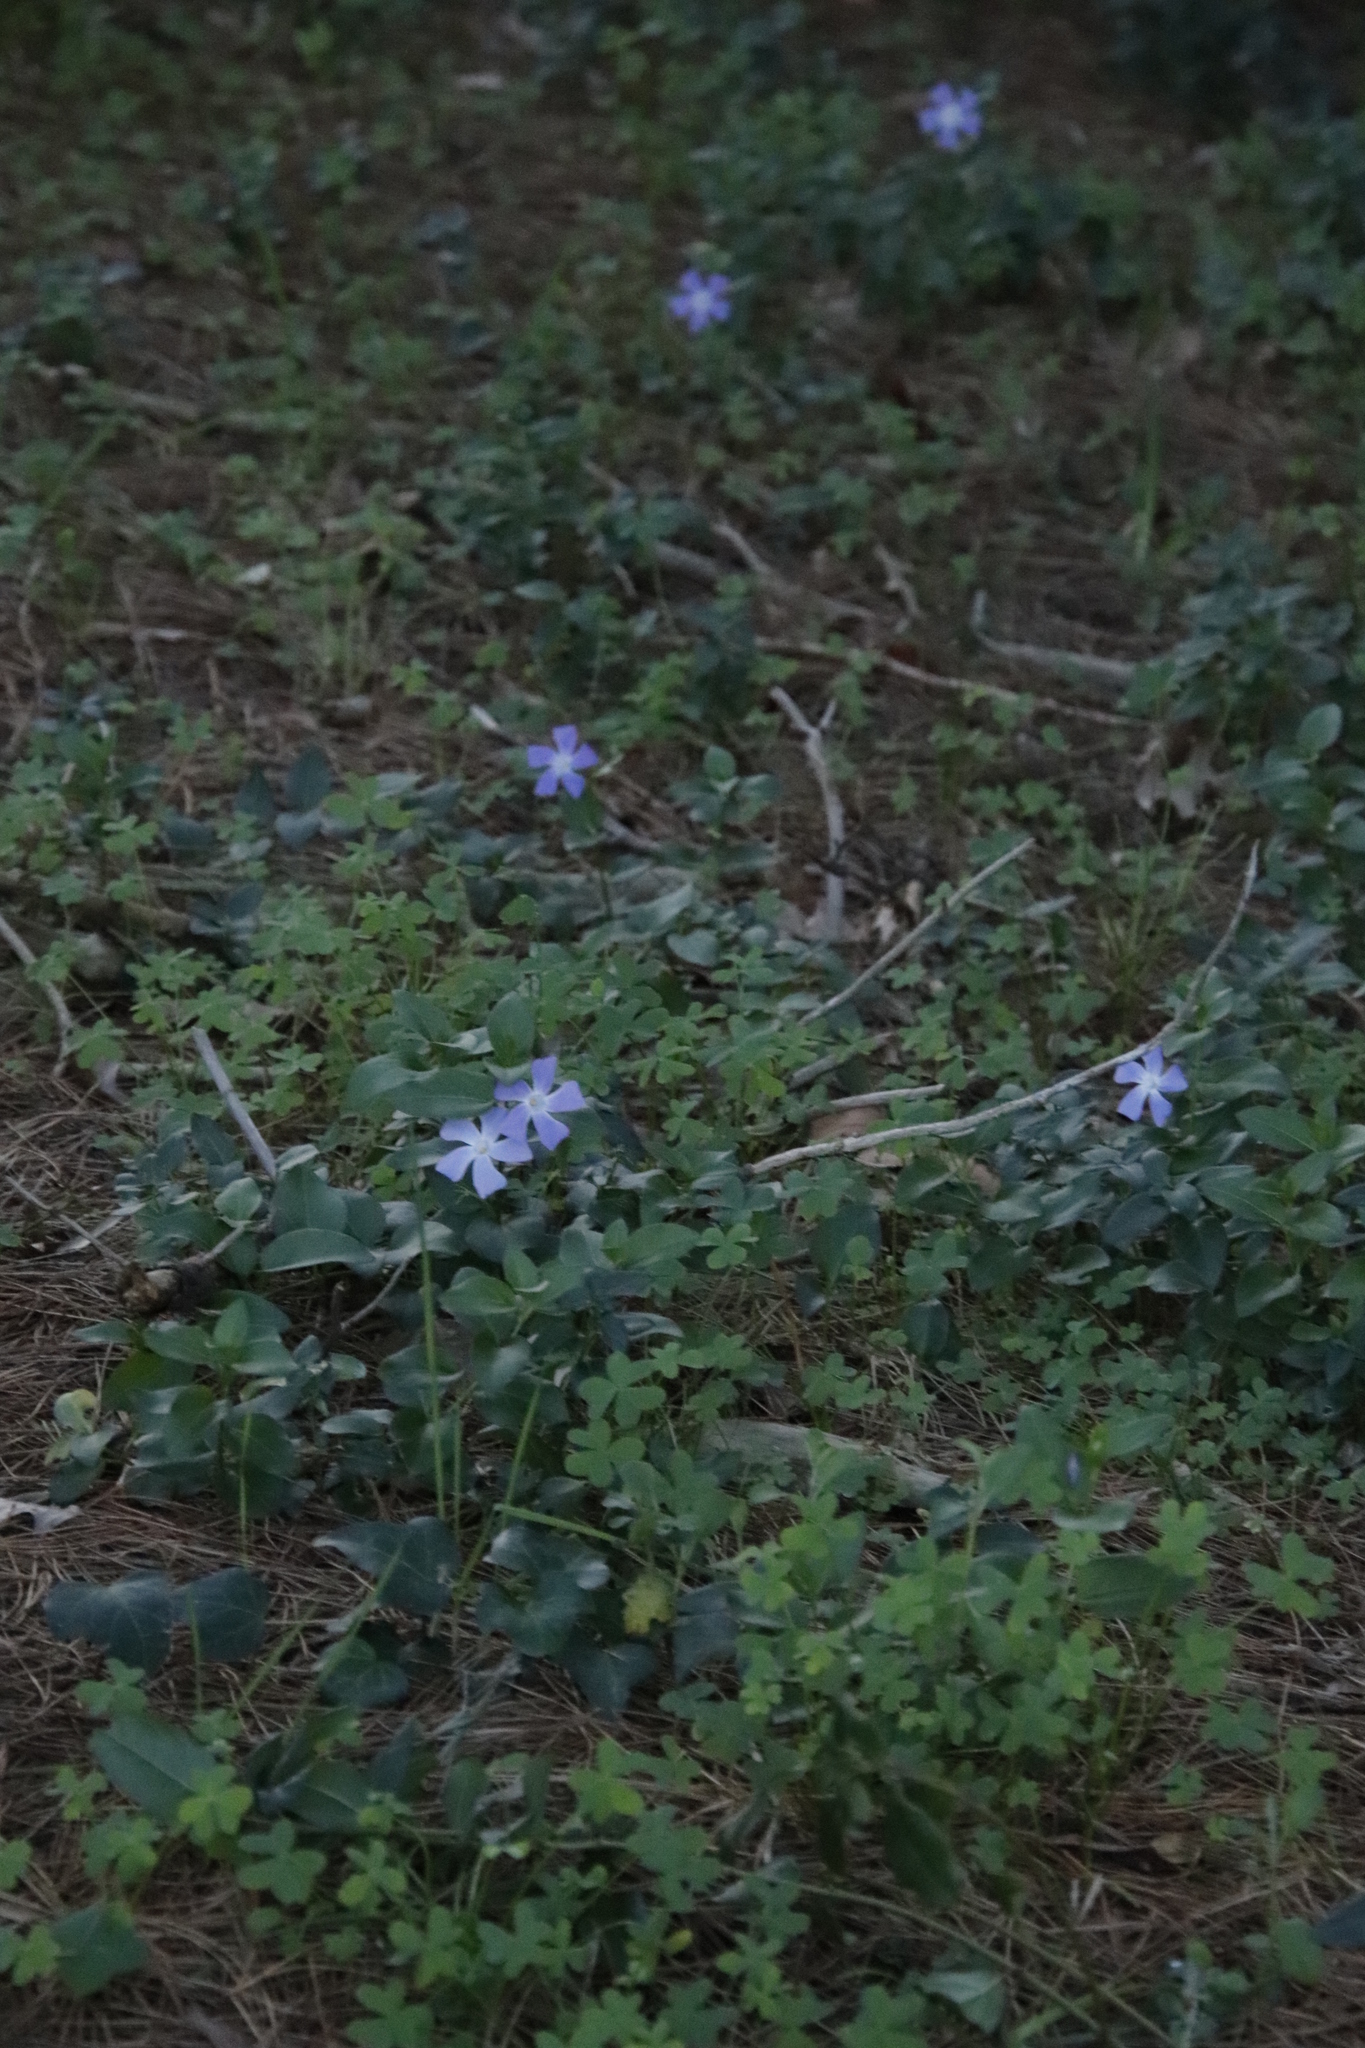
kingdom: Plantae
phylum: Tracheophyta
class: Magnoliopsida
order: Gentianales
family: Apocynaceae
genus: Vinca
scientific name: Vinca major
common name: Greater periwinkle
